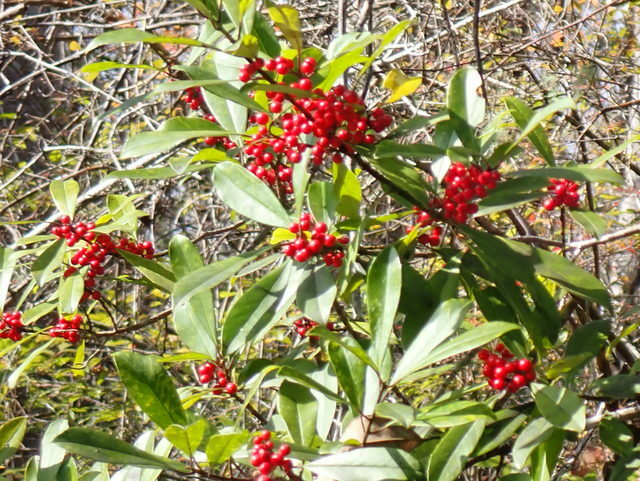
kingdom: Plantae
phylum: Tracheophyta
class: Magnoliopsida
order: Aquifoliales
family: Aquifoliaceae
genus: Ilex
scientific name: Ilex cassine
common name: Dahoon
